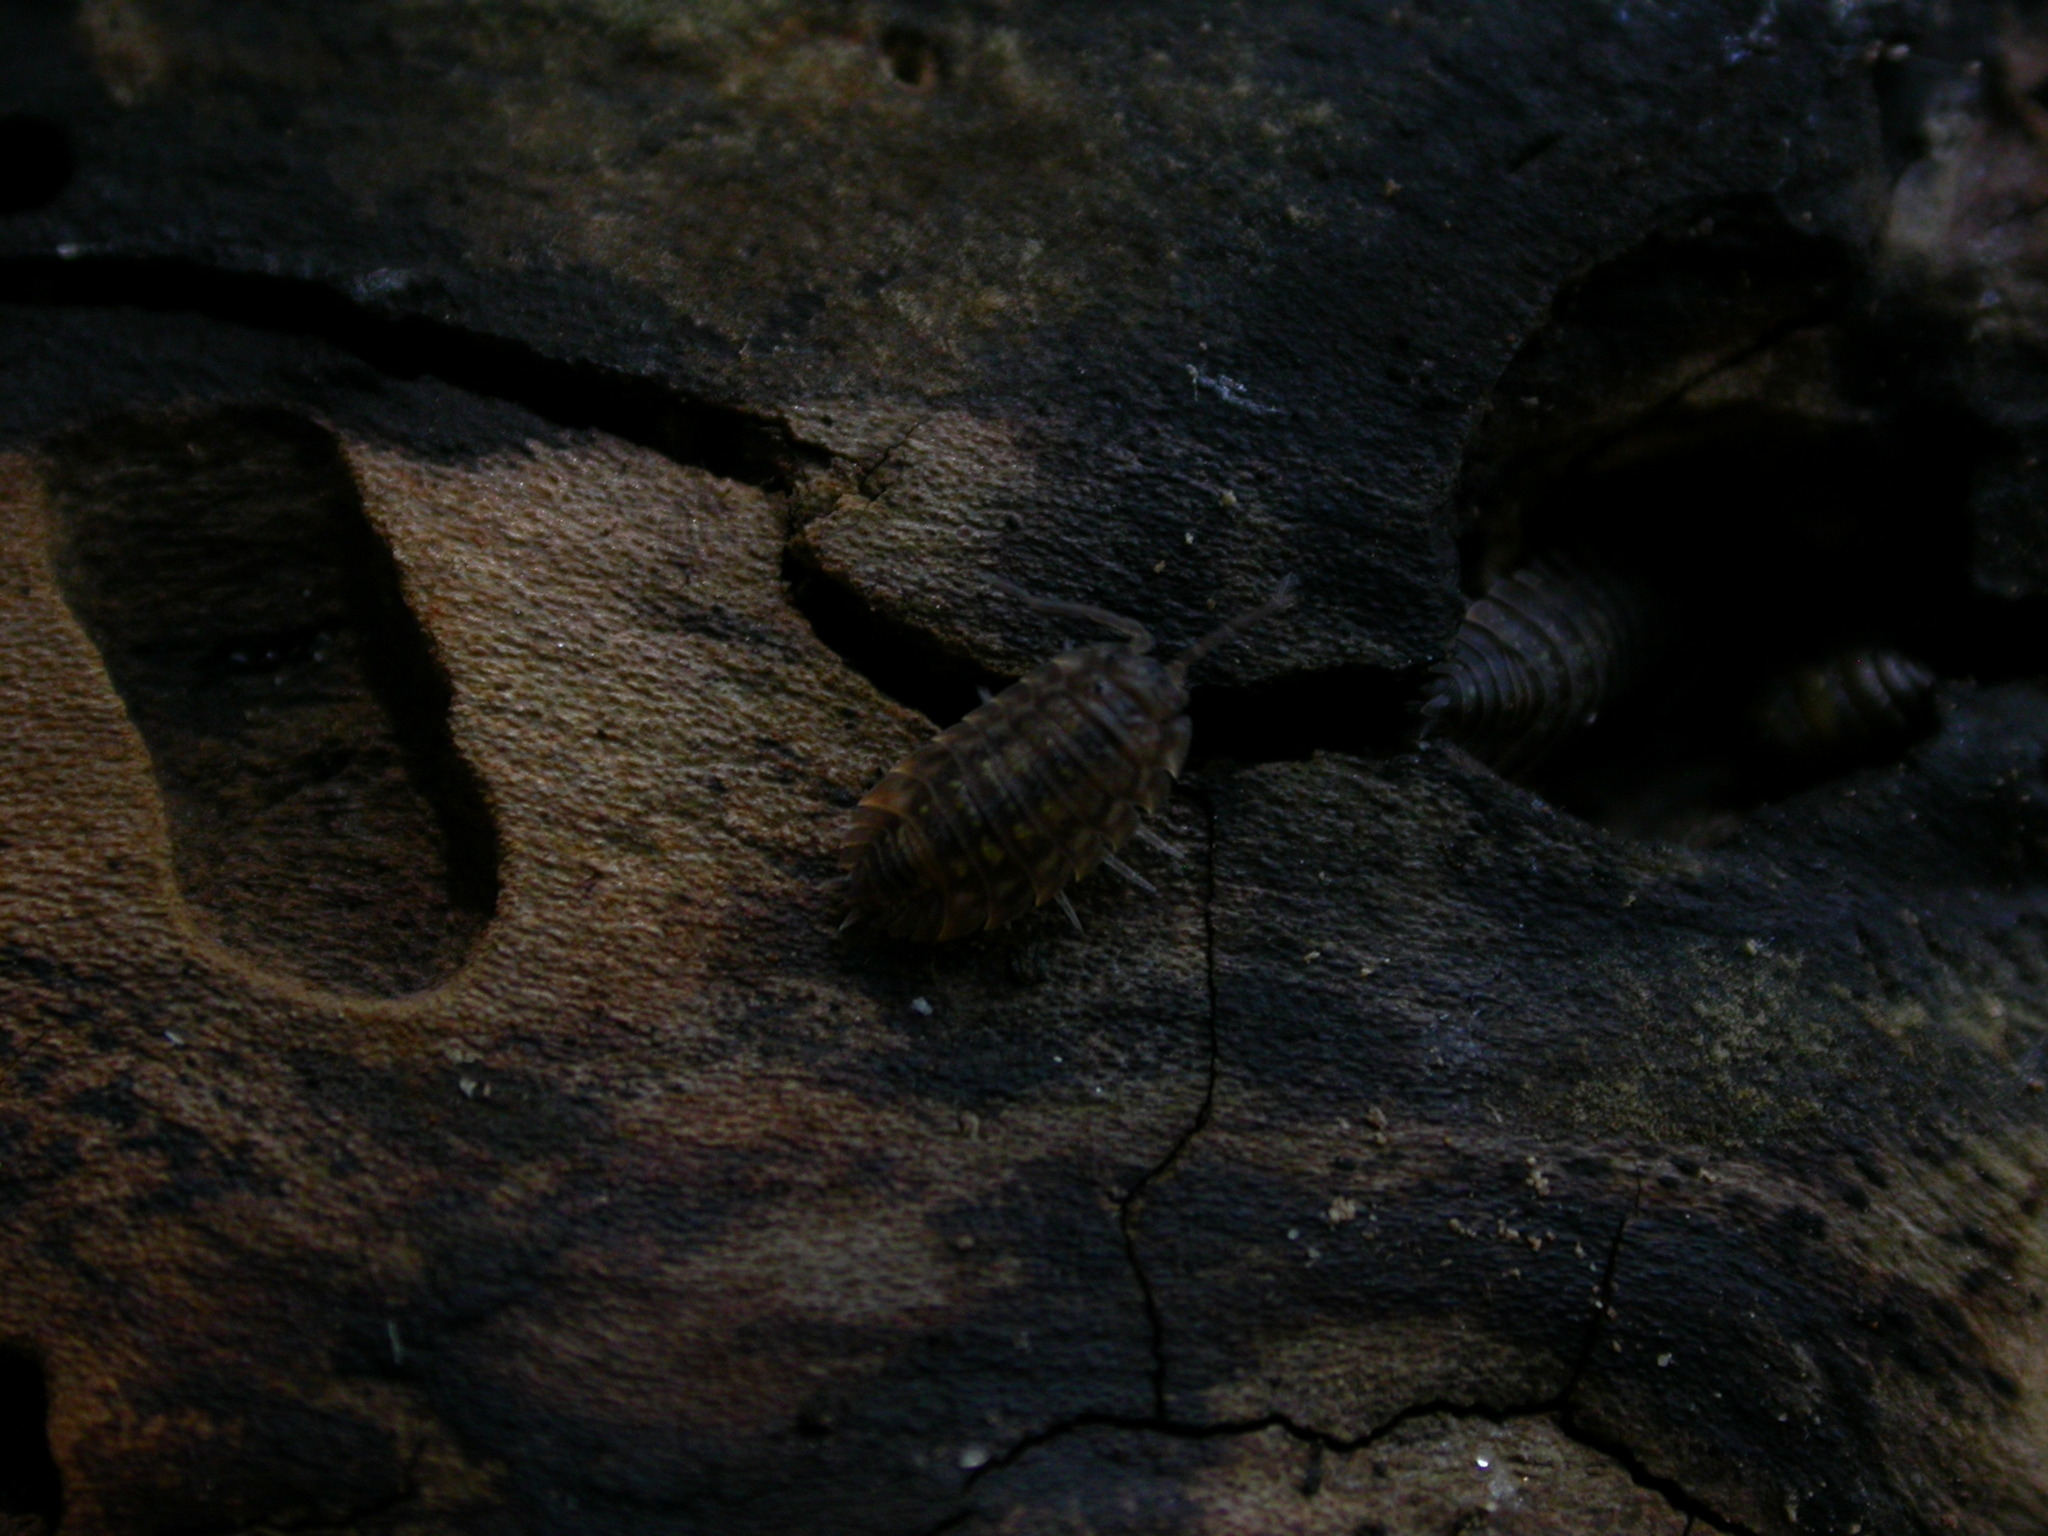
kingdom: Animalia
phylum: Arthropoda
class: Malacostraca
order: Isopoda
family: Oniscidae
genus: Oniscus
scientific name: Oniscus asellus
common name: Common shiny woodlouse
